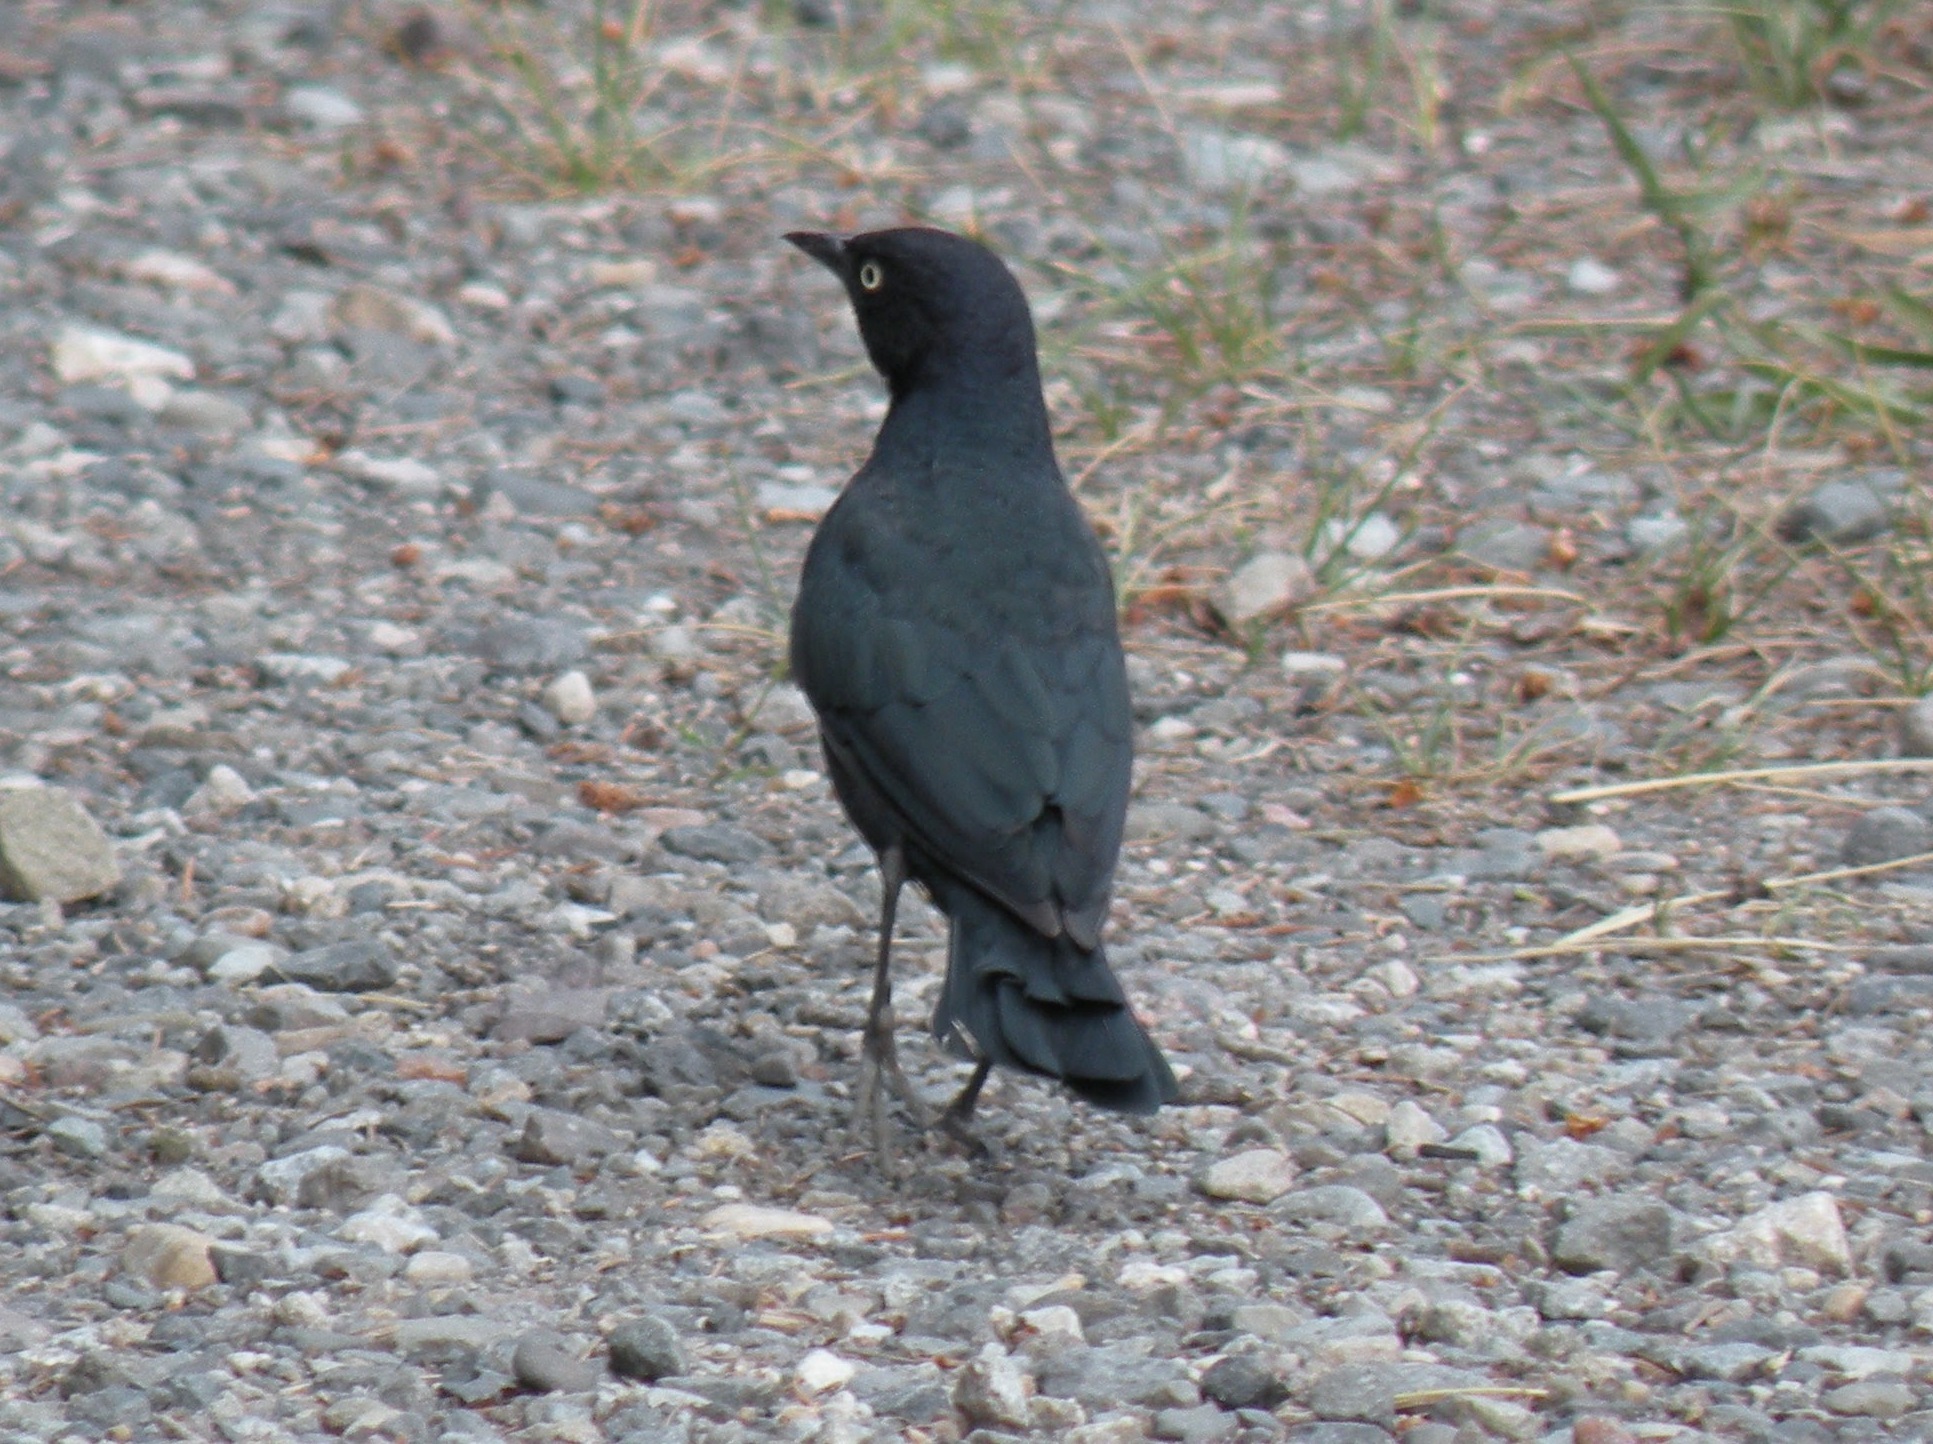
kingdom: Animalia
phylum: Chordata
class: Aves
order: Passeriformes
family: Icteridae
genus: Euphagus
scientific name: Euphagus cyanocephalus
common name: Brewer's blackbird
